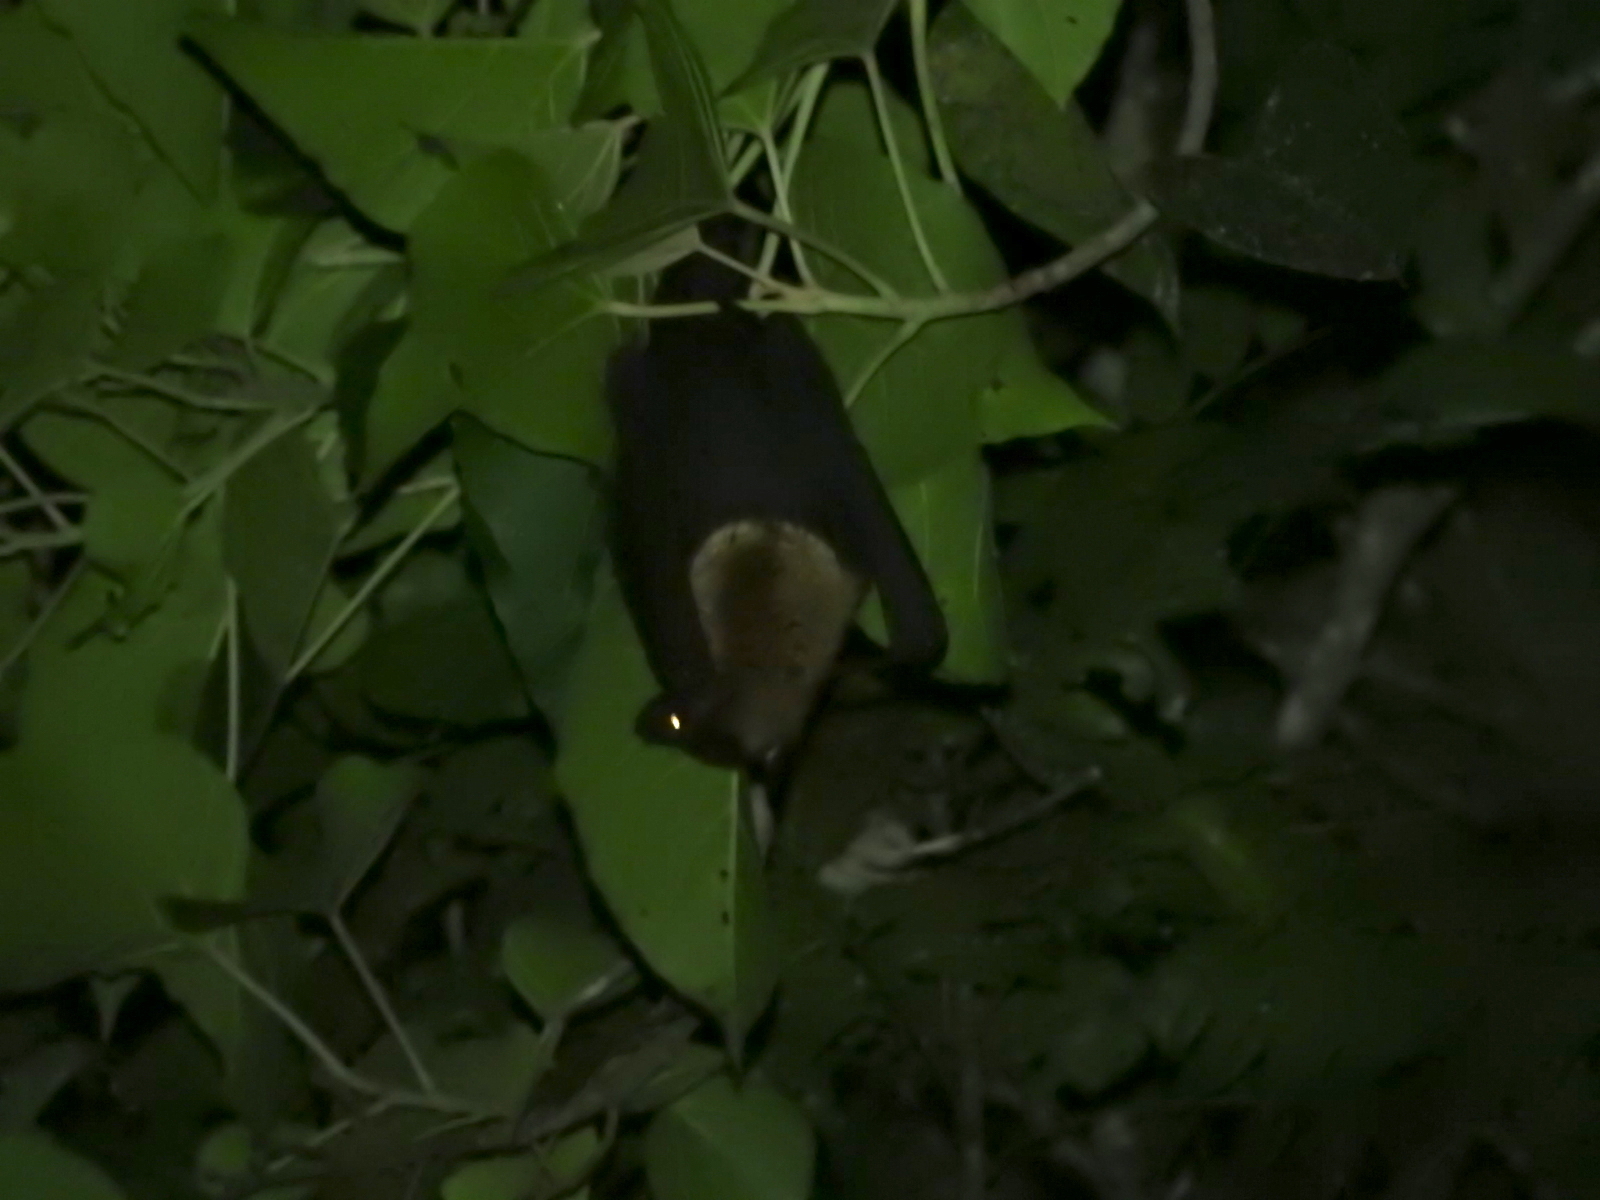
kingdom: Animalia
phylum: Chordata
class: Mammalia
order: Chiroptera
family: Pteropodidae
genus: Pteropus
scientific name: Pteropus conspicillatus
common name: Spectacled flying fox
